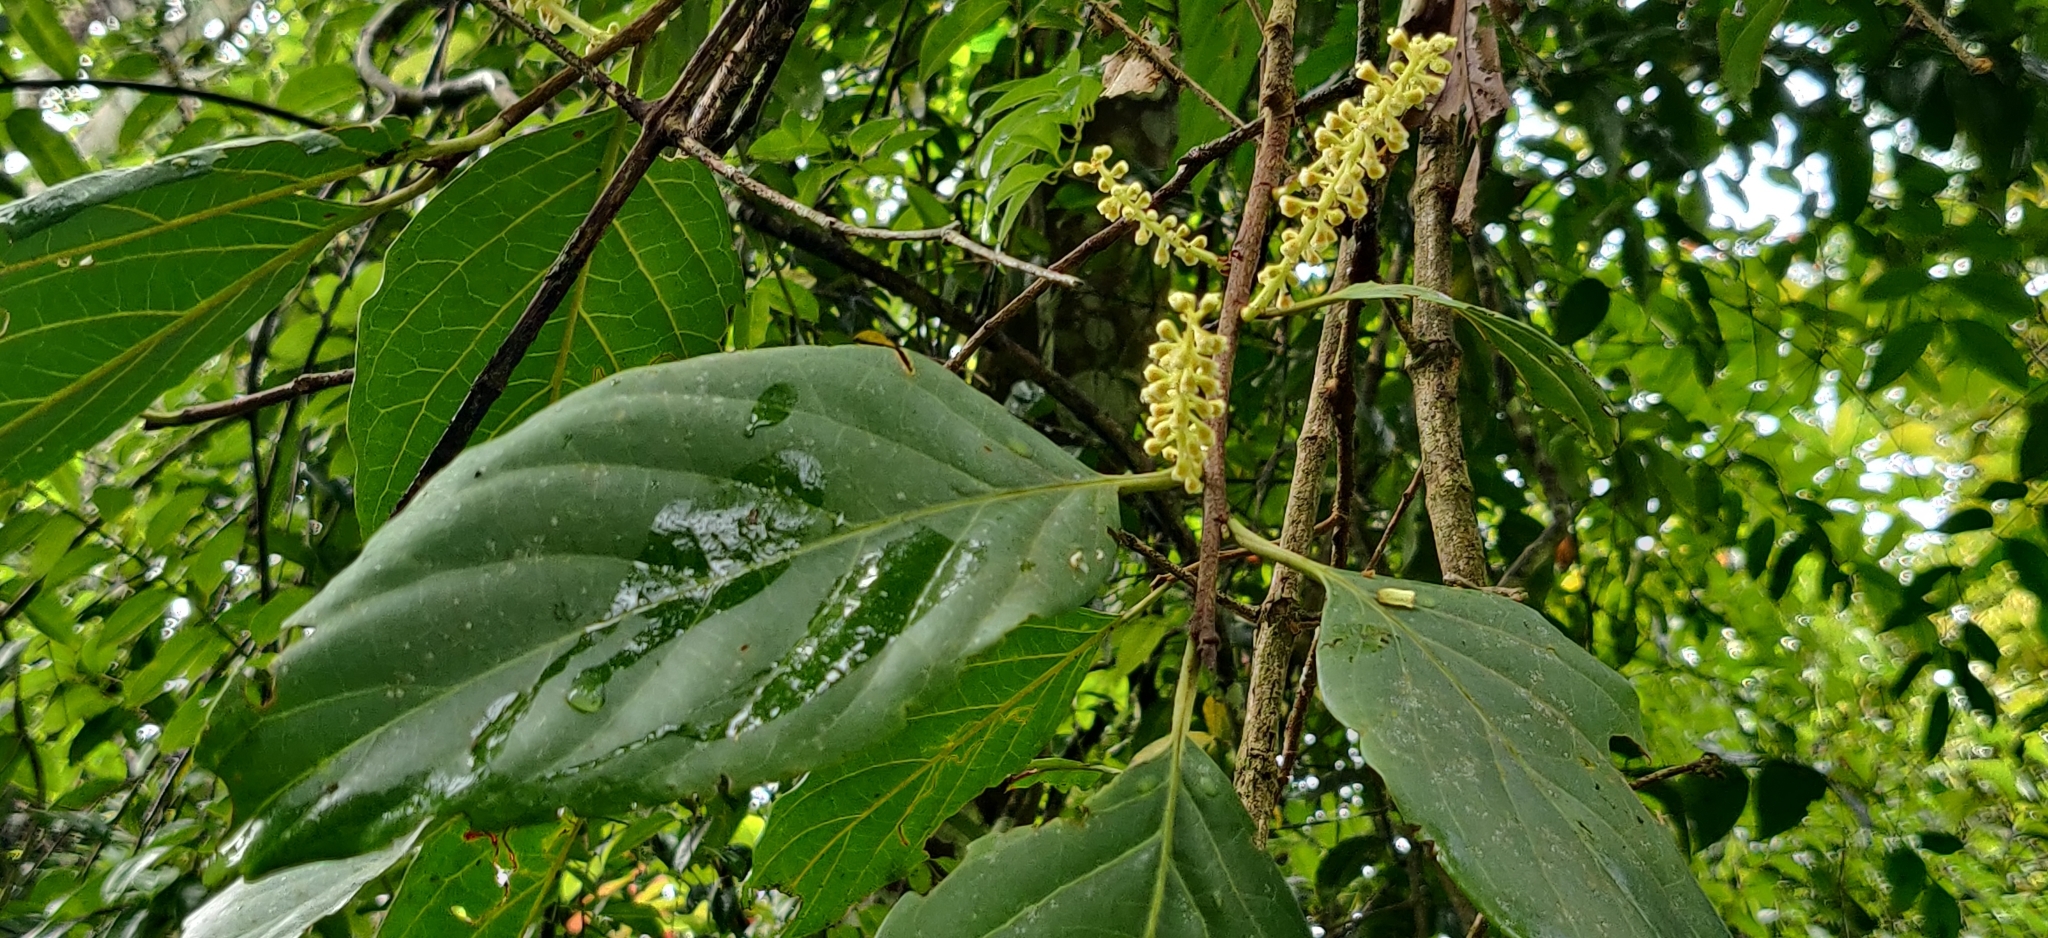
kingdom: Plantae
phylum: Tracheophyta
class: Magnoliopsida
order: Rosales
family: Rosaceae
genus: Prunus
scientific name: Prunus ceylanica
